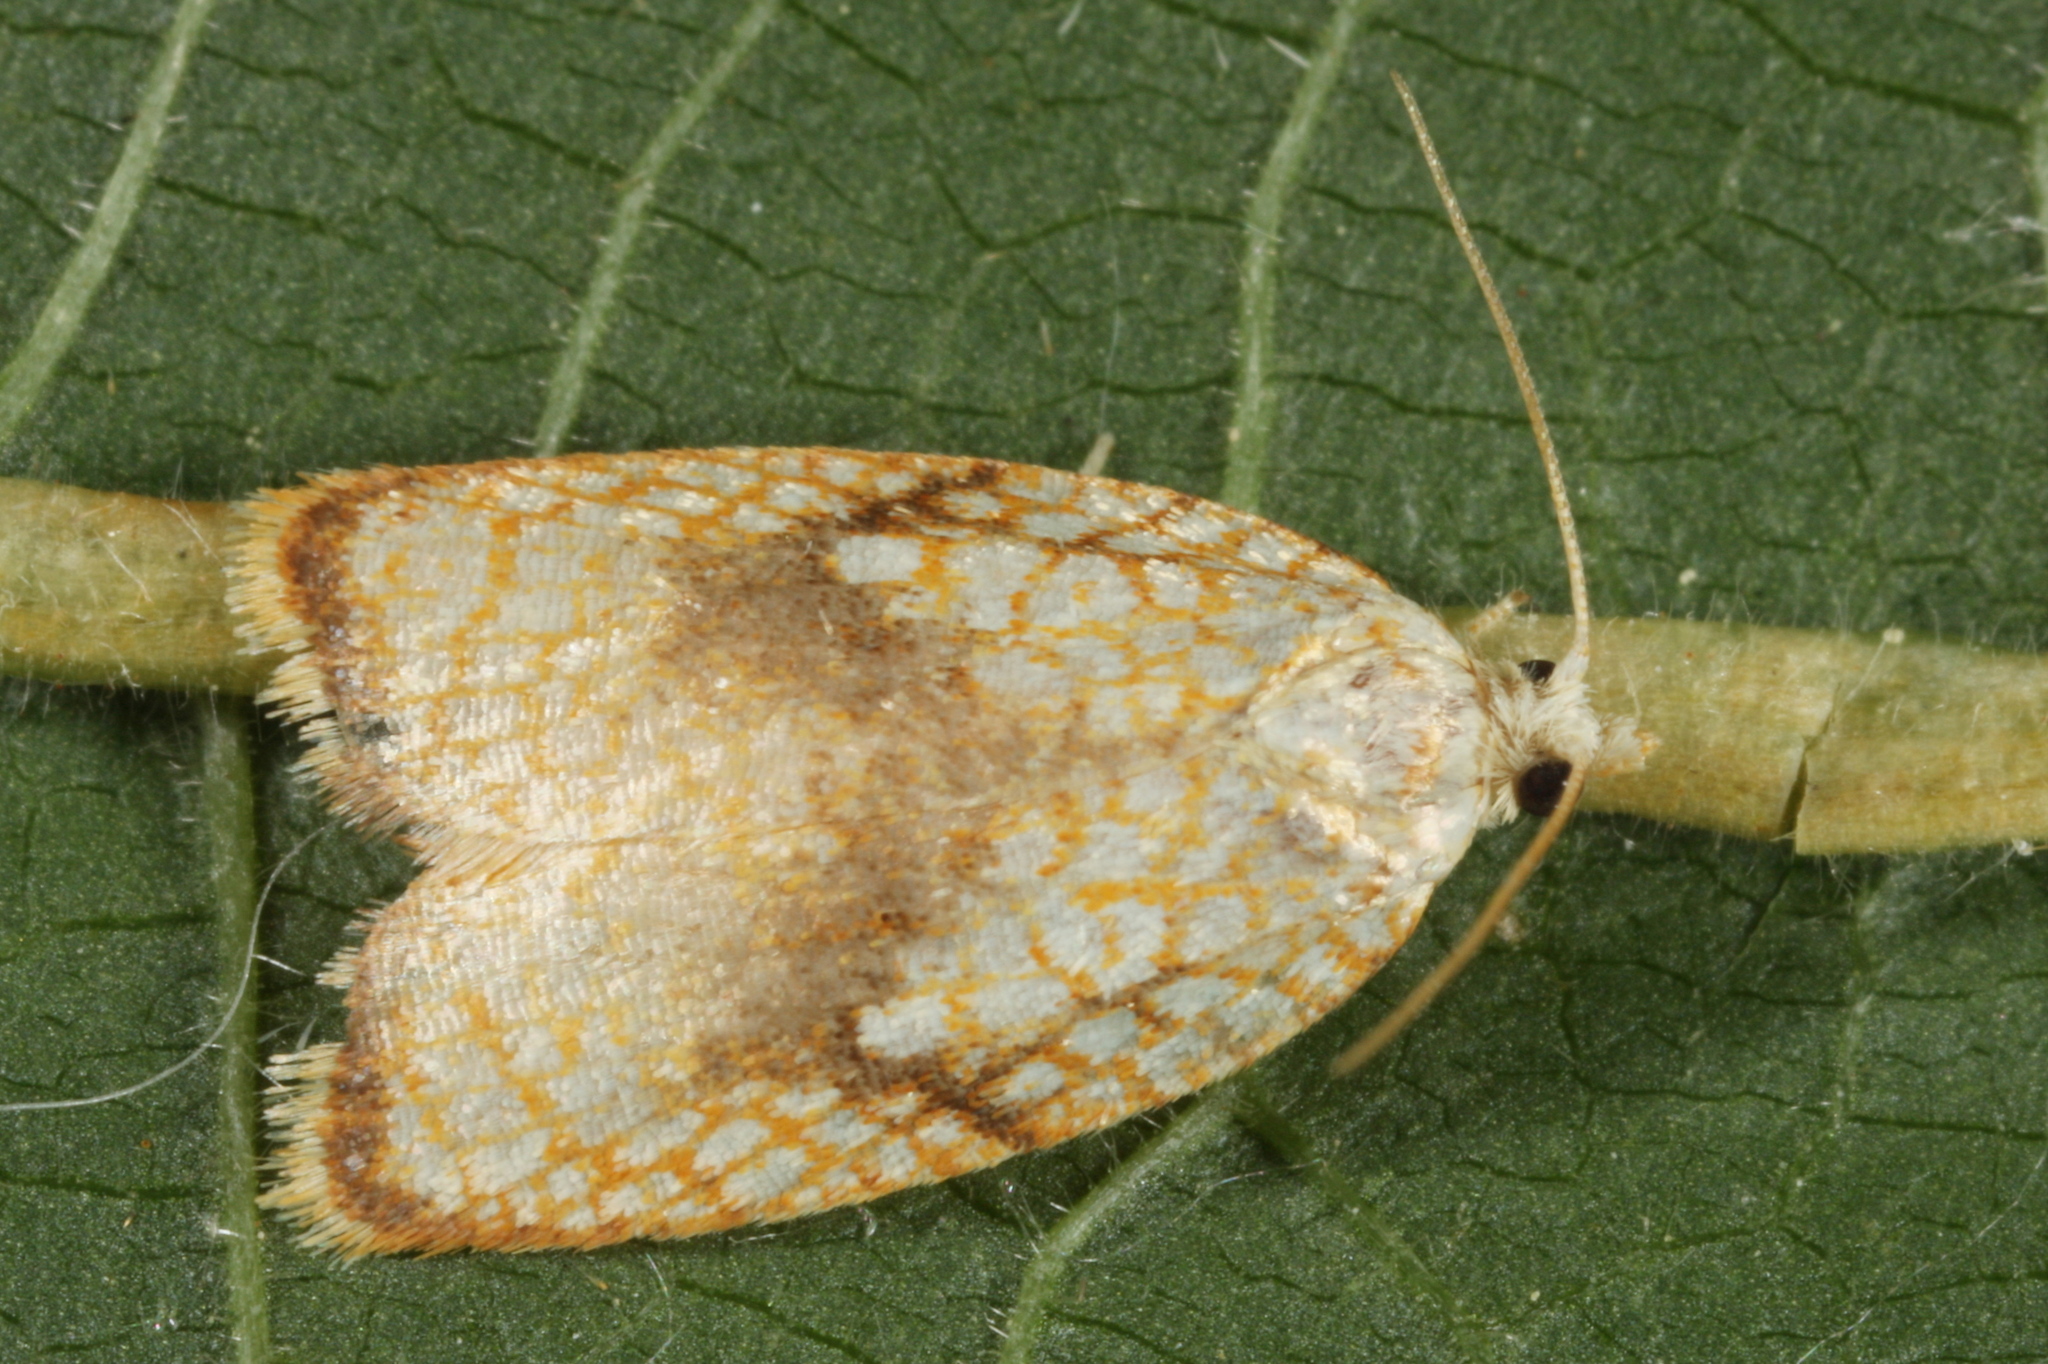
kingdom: Animalia
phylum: Arthropoda
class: Insecta
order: Lepidoptera
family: Tortricidae
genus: Acleris
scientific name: Acleris forsskaleana
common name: Maple button
